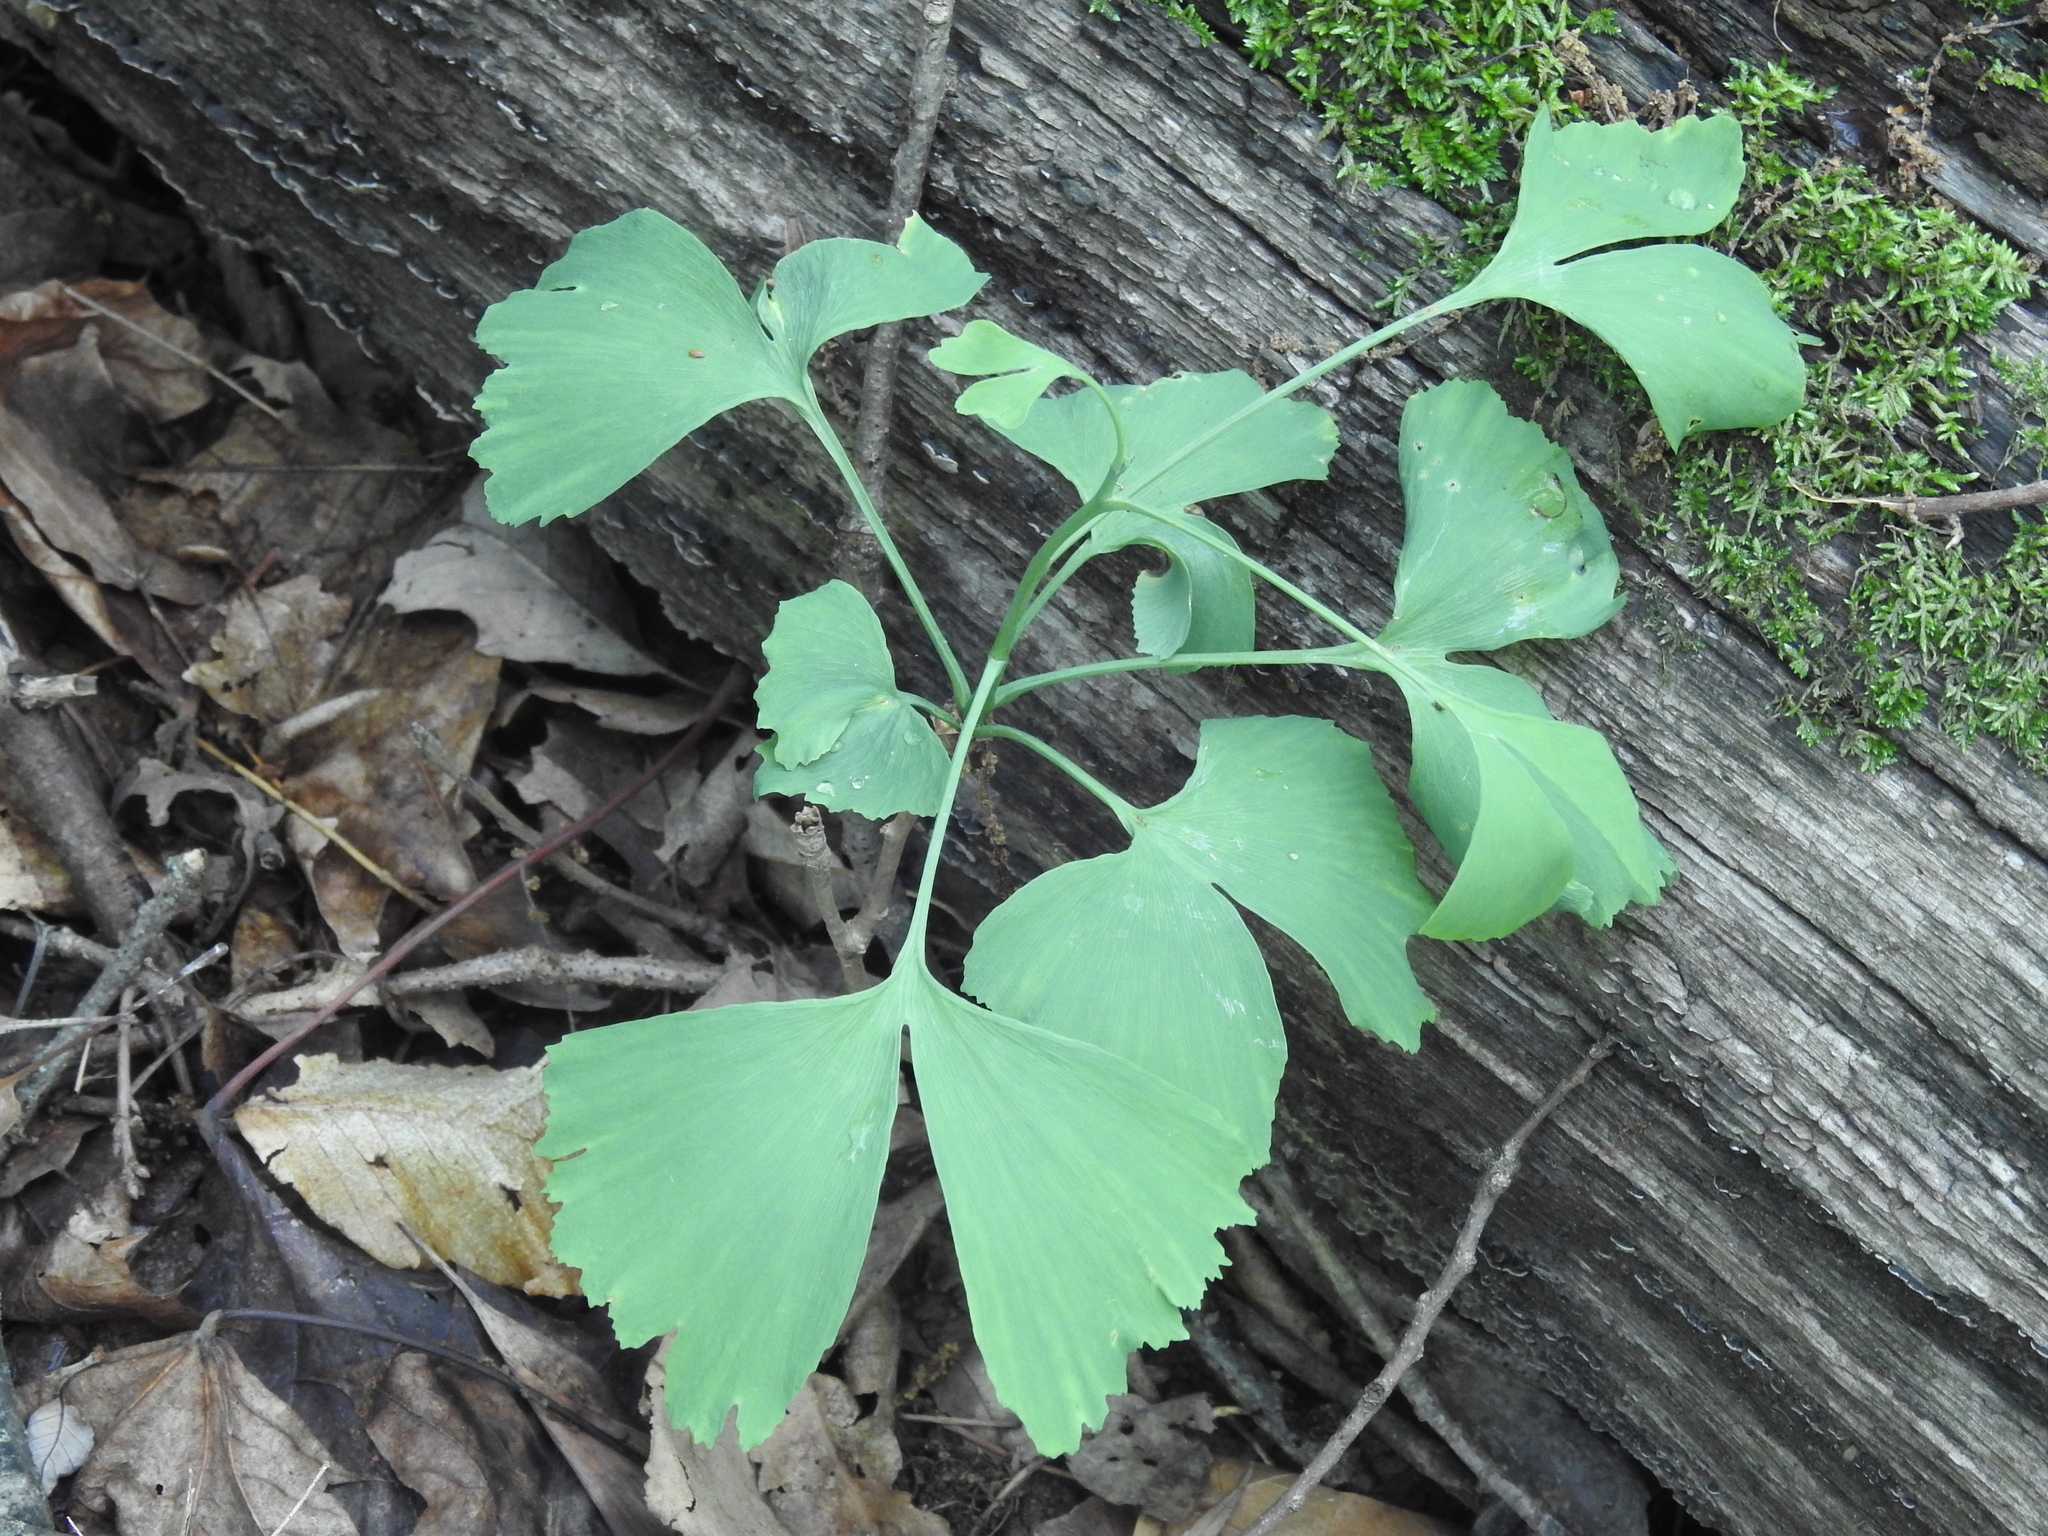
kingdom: Plantae
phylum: Tracheophyta
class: Ginkgoopsida
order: Ginkgoales
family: Ginkgoaceae
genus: Ginkgo
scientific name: Ginkgo biloba
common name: Ginkgo
